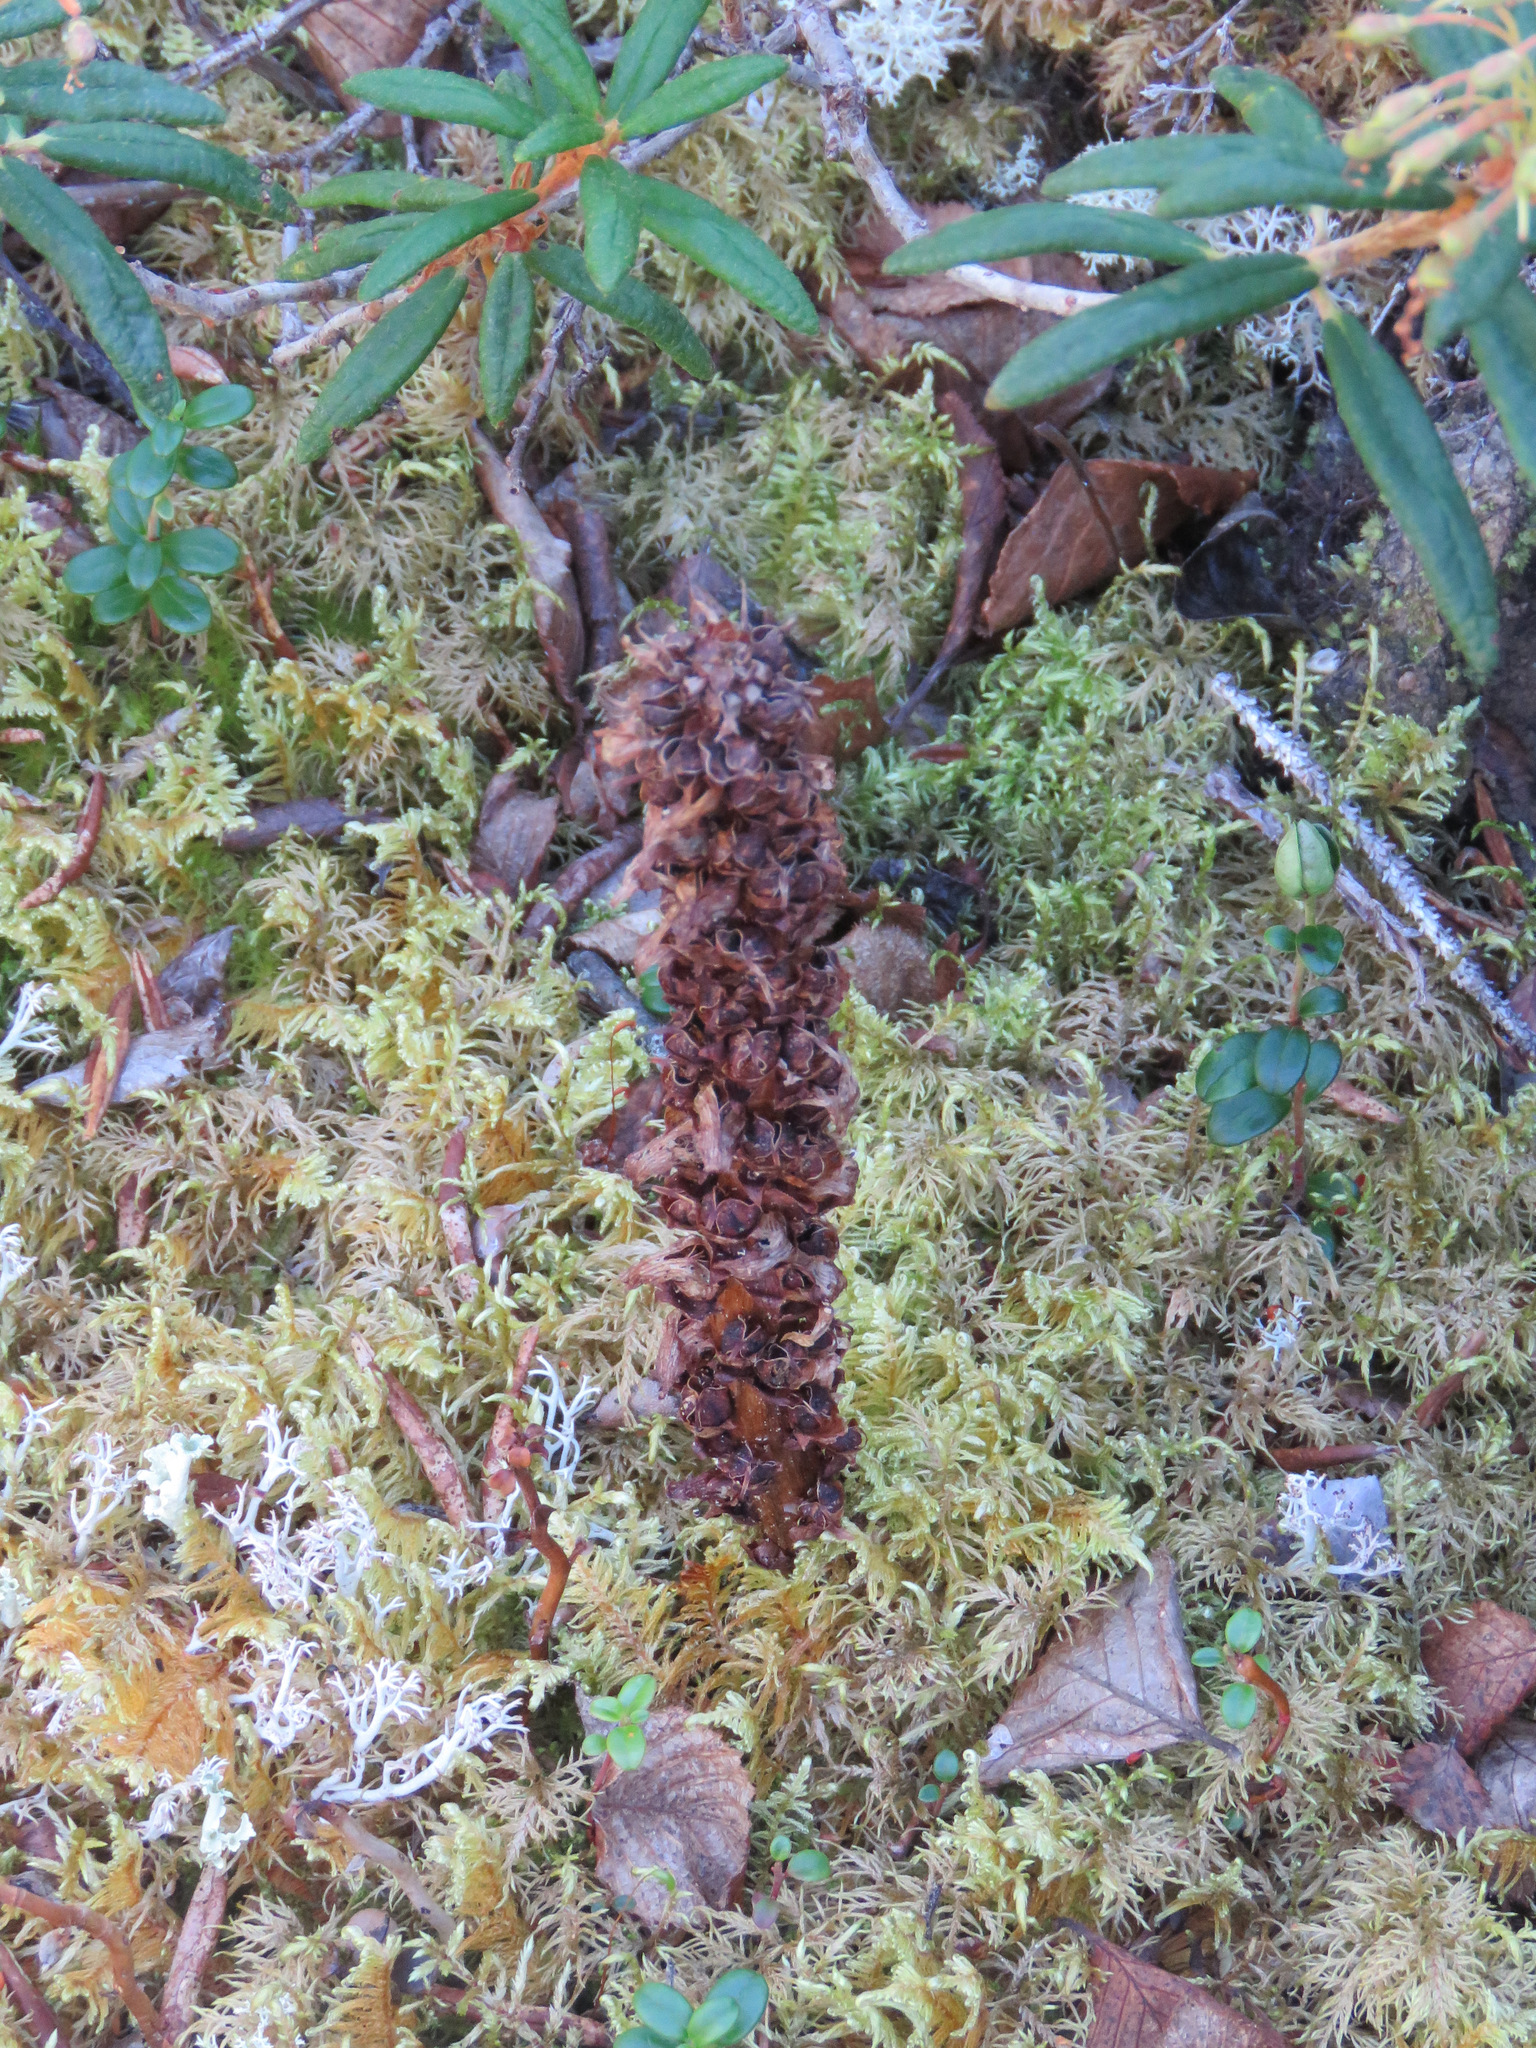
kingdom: Plantae
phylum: Tracheophyta
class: Magnoliopsida
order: Lamiales
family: Orobanchaceae
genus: Boschniakia
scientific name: Boschniakia rossica
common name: Poque
